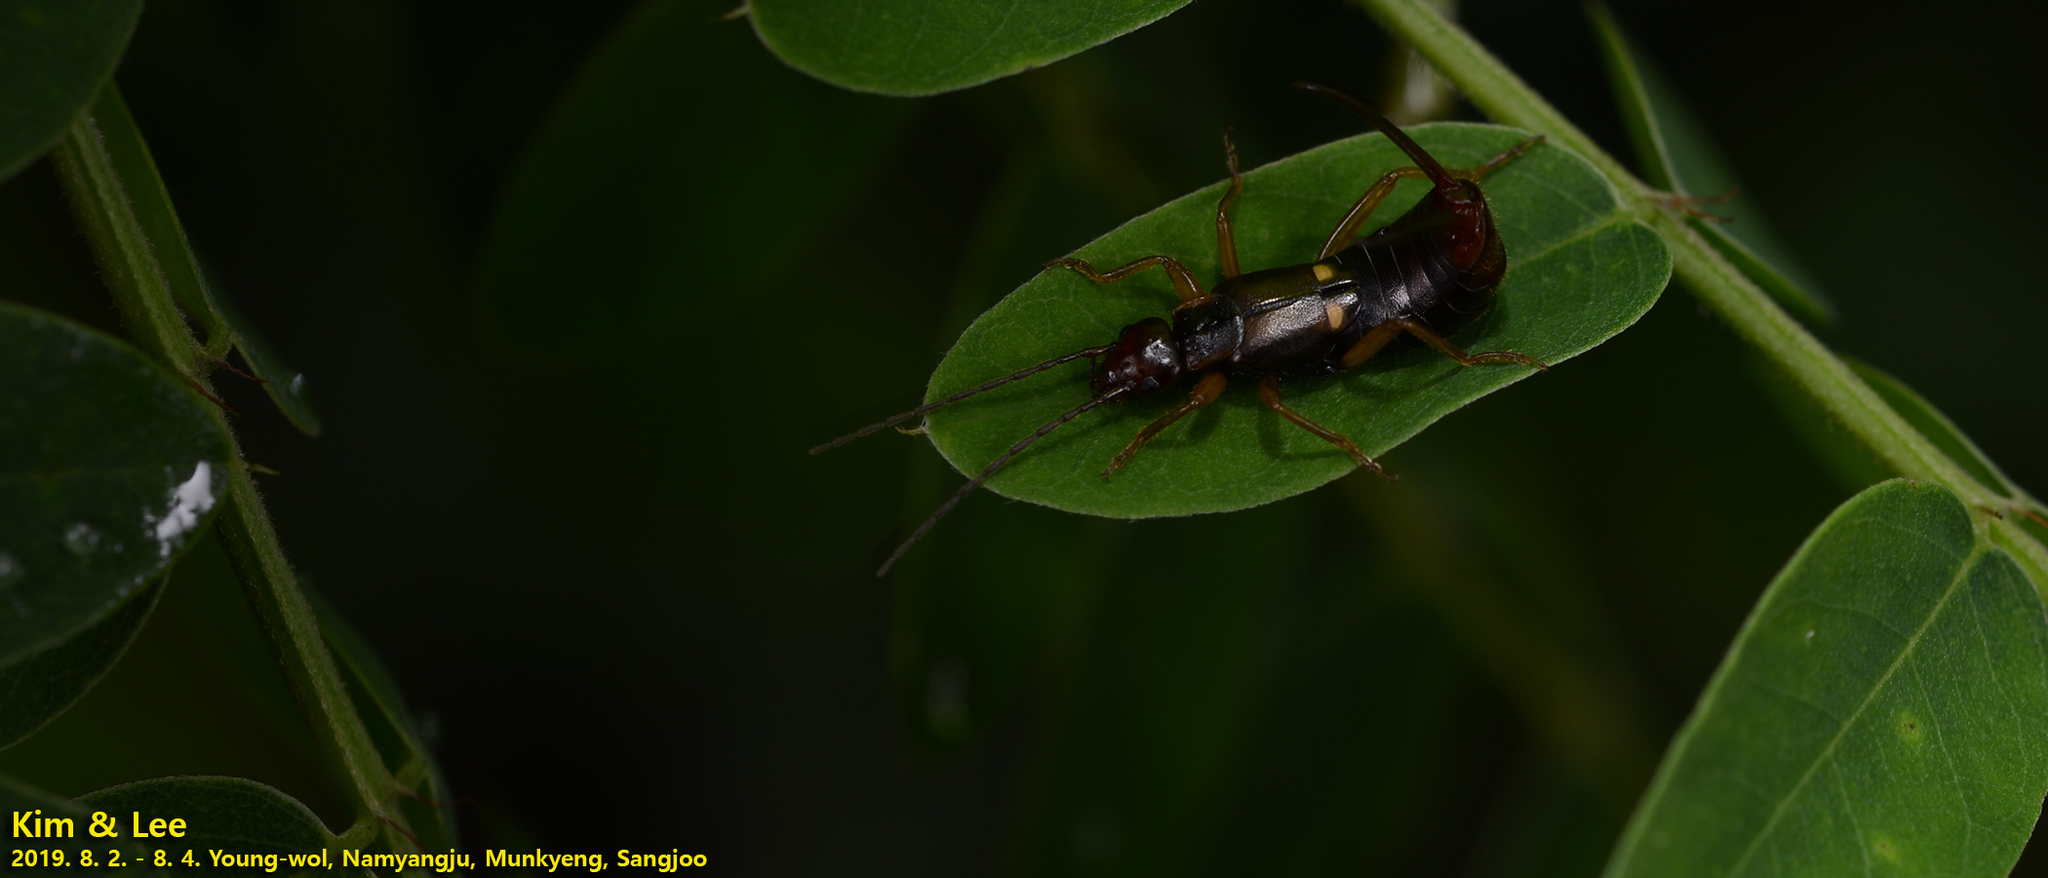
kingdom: Animalia
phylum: Arthropoda
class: Insecta
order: Dermaptera
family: Forficulidae
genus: Anechura
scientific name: Anechura japonica
